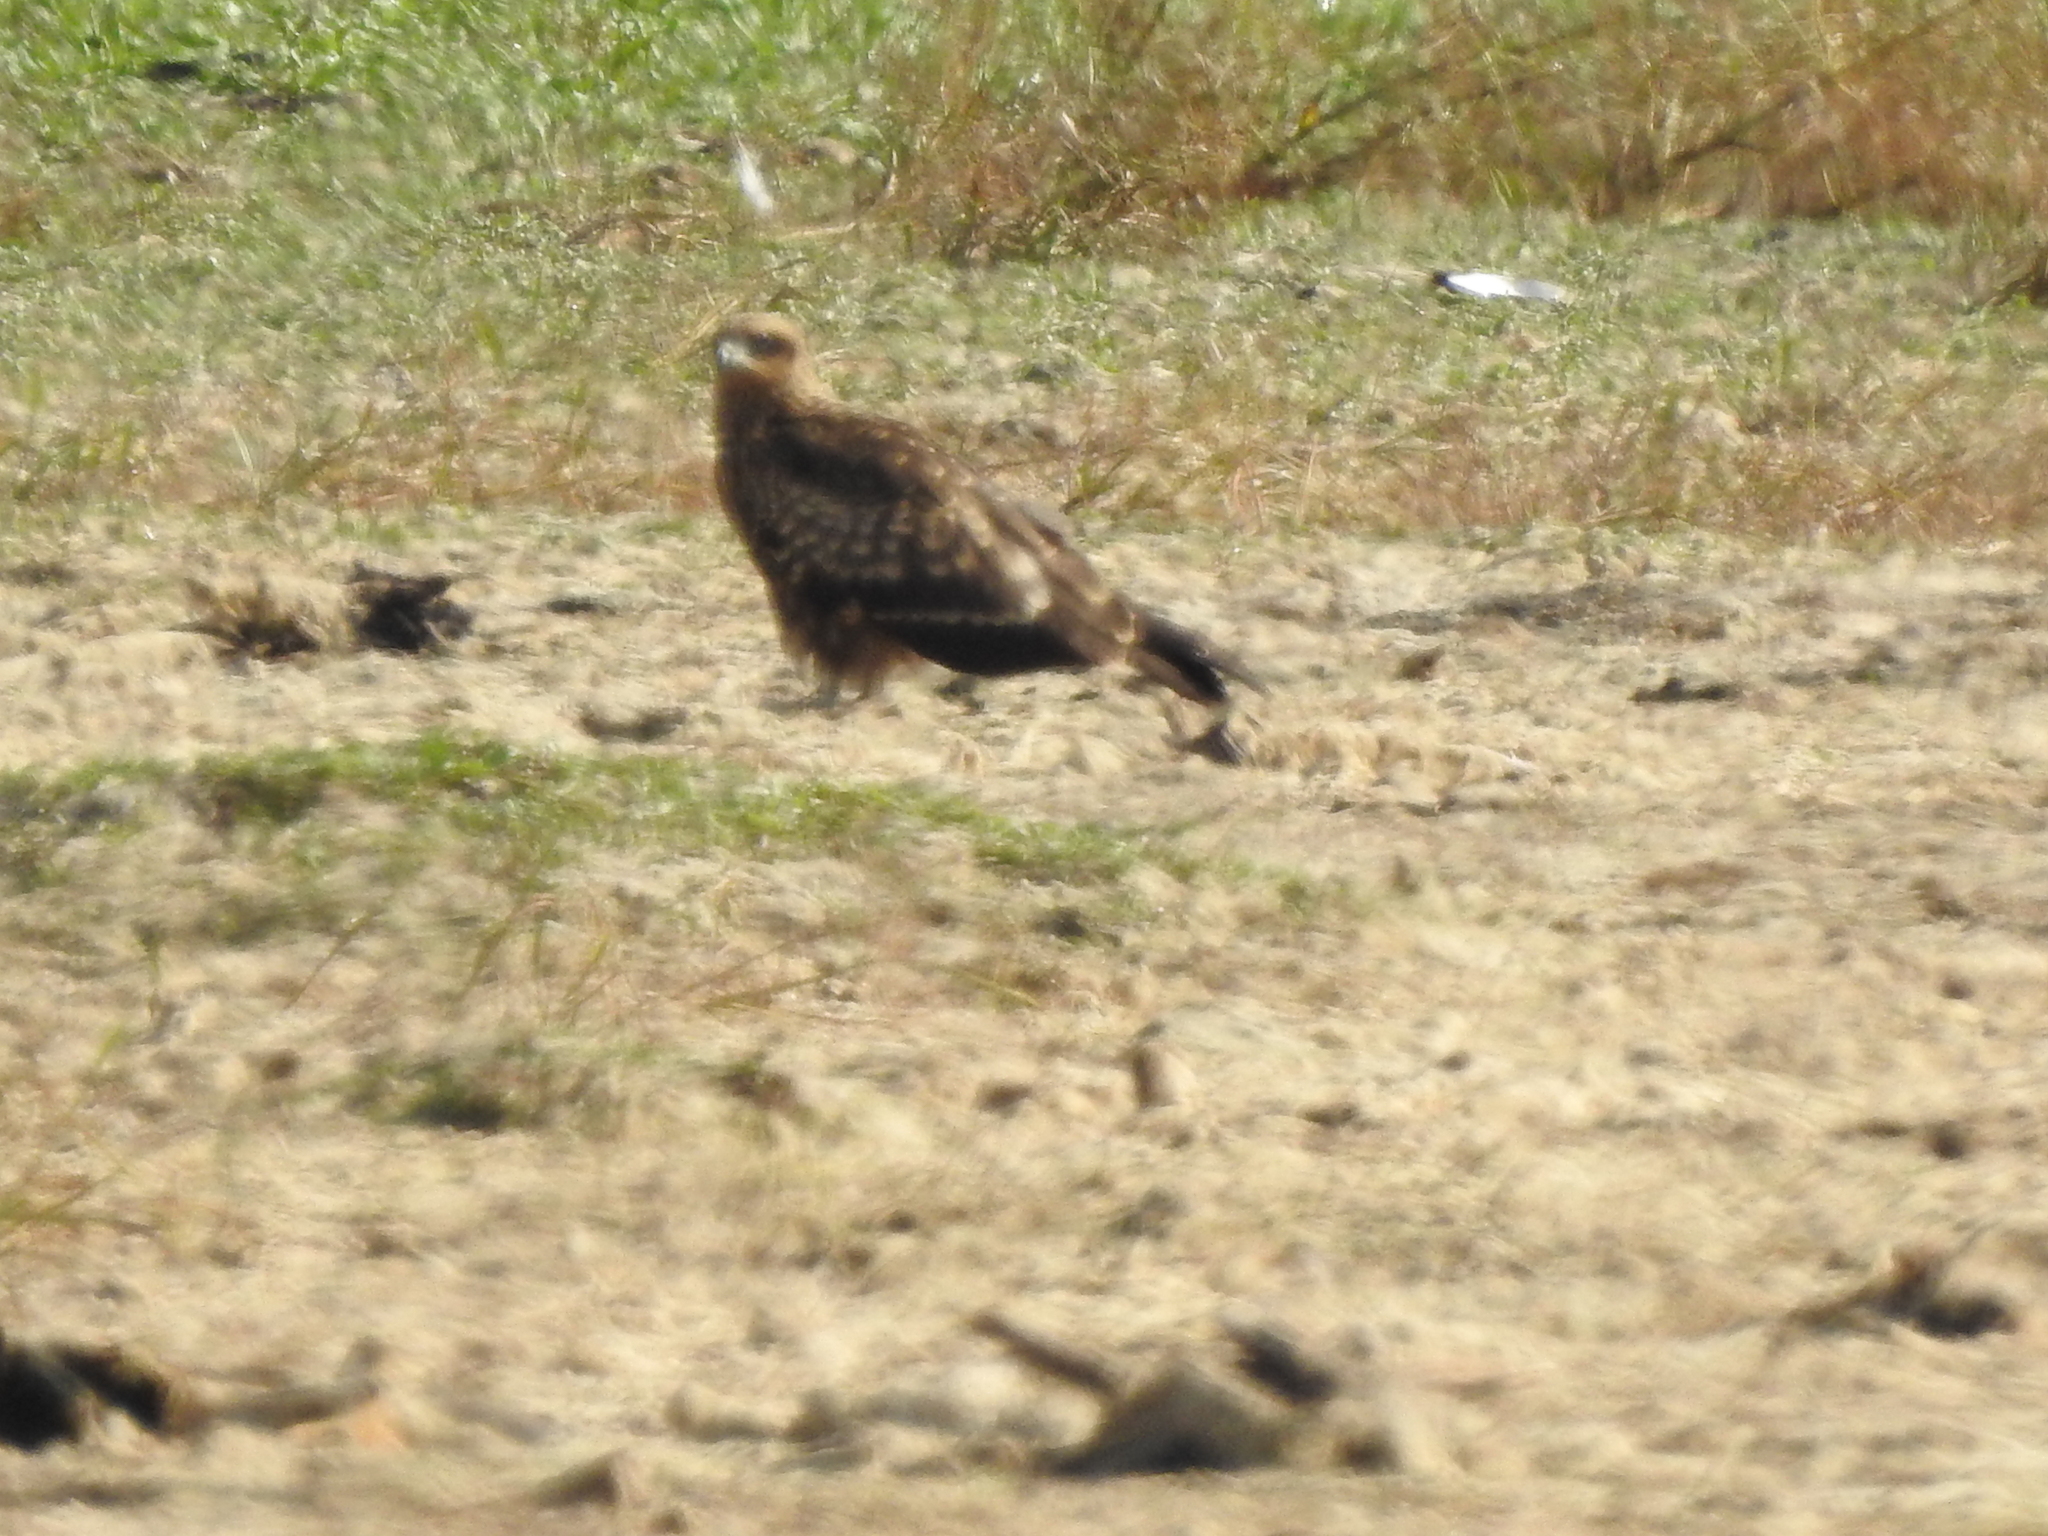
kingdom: Animalia
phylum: Chordata
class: Aves
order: Accipitriformes
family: Accipitridae
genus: Milvus
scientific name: Milvus migrans
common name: Black kite
